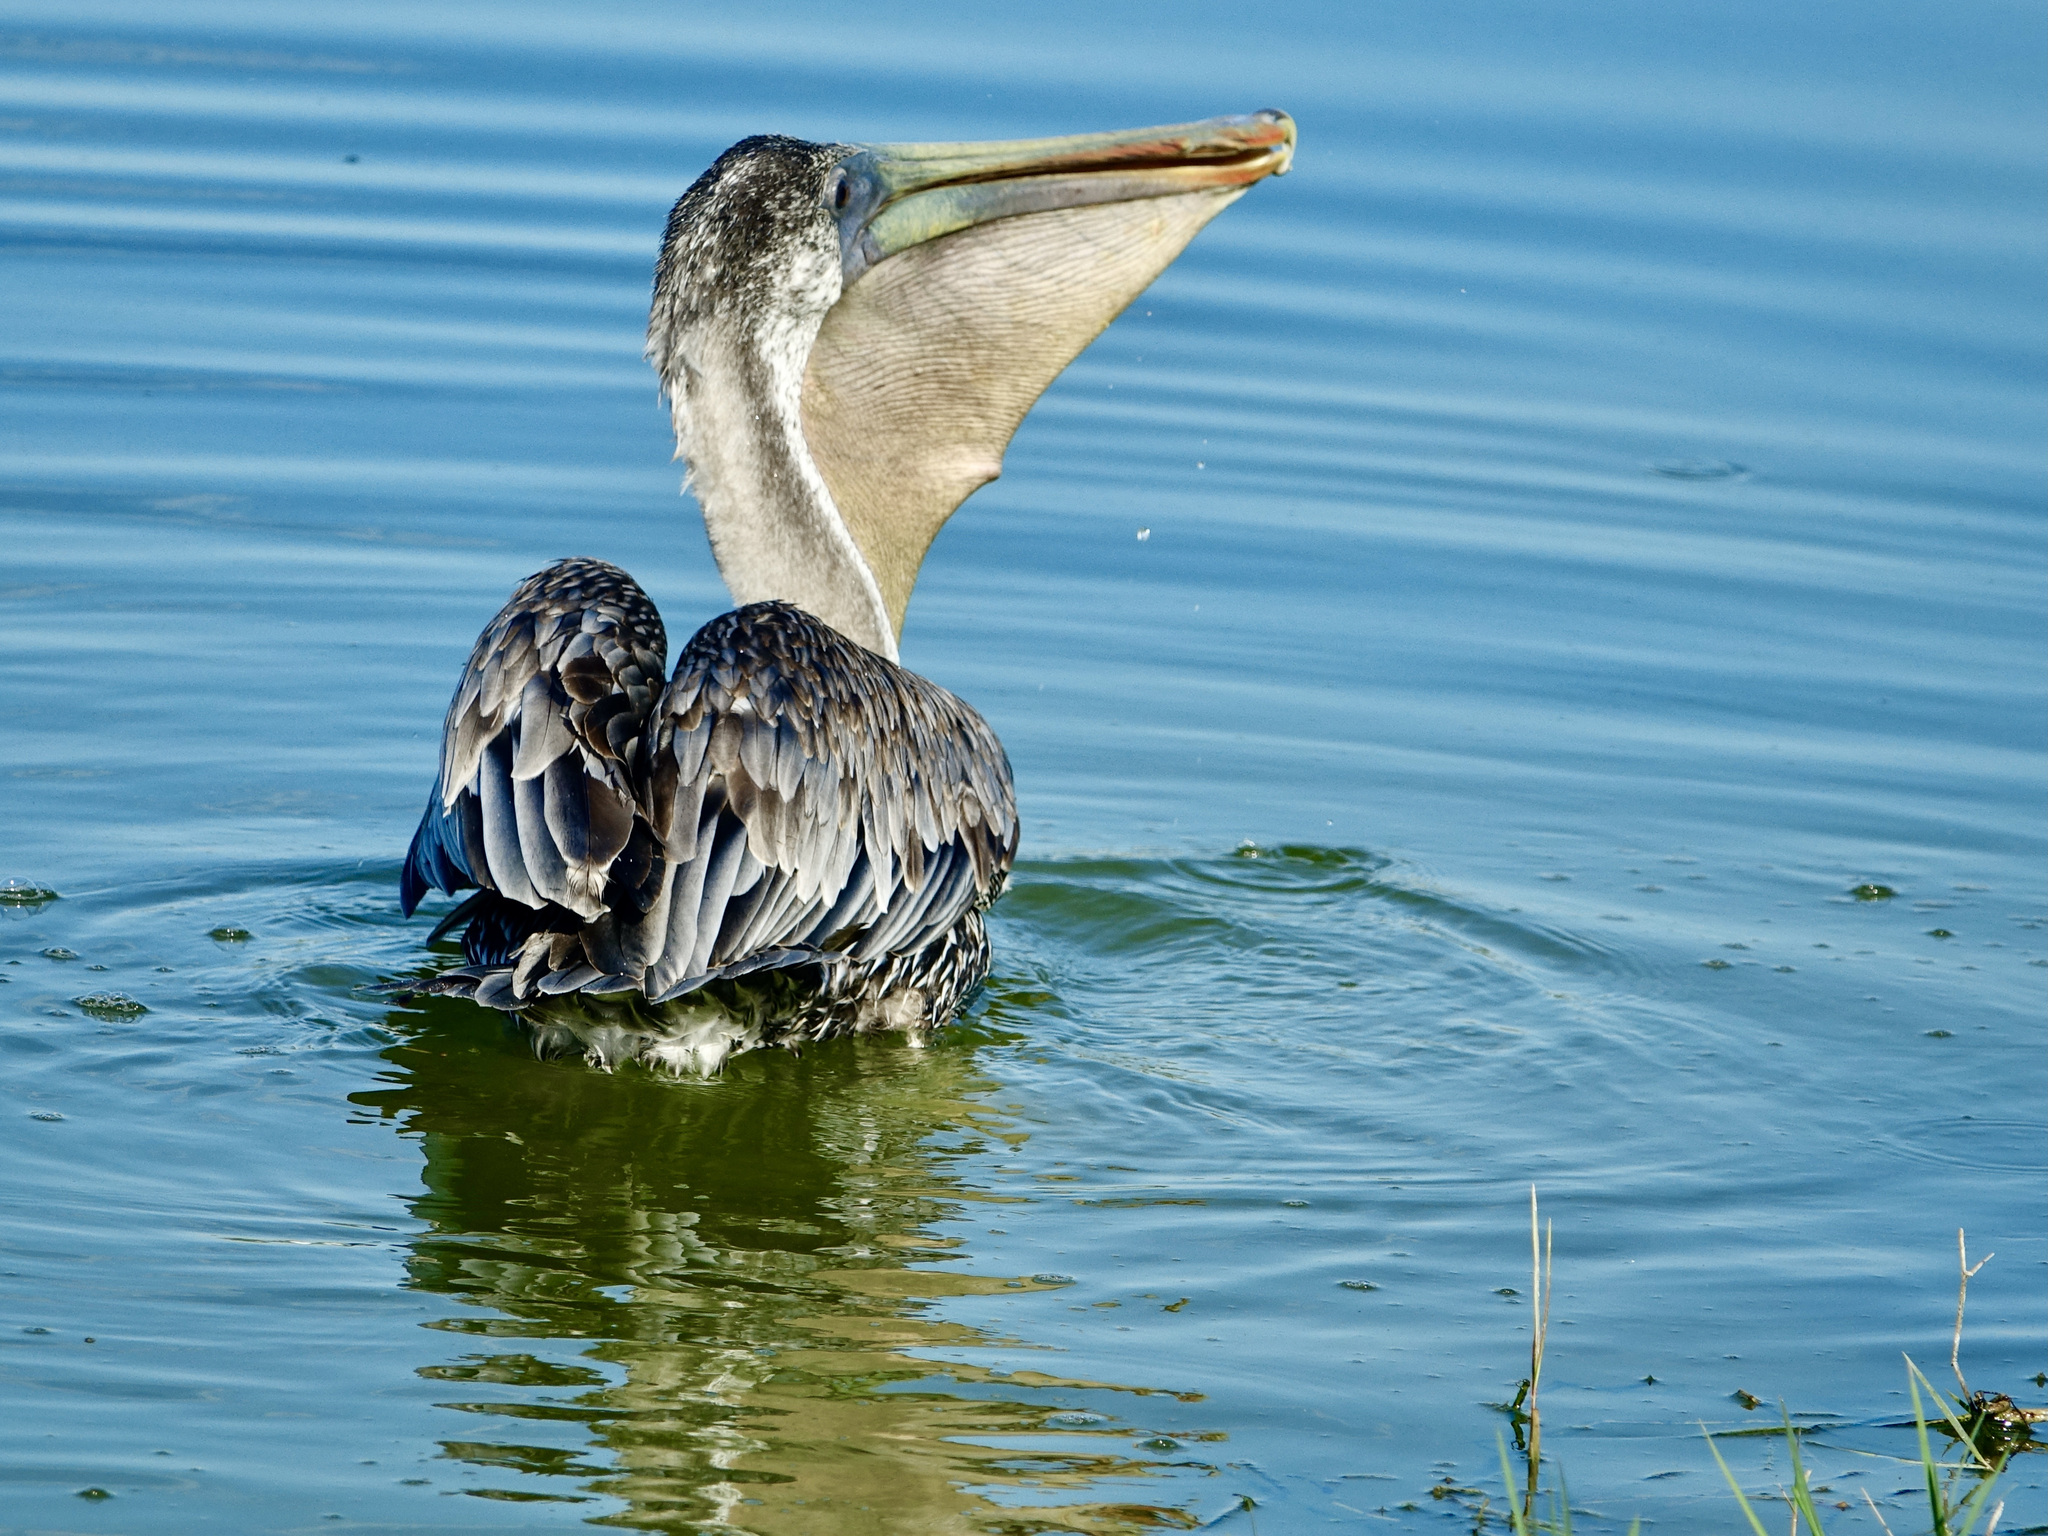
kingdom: Animalia
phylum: Chordata
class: Aves
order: Pelecaniformes
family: Pelecanidae
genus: Pelecanus
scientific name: Pelecanus occidentalis
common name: Brown pelican
